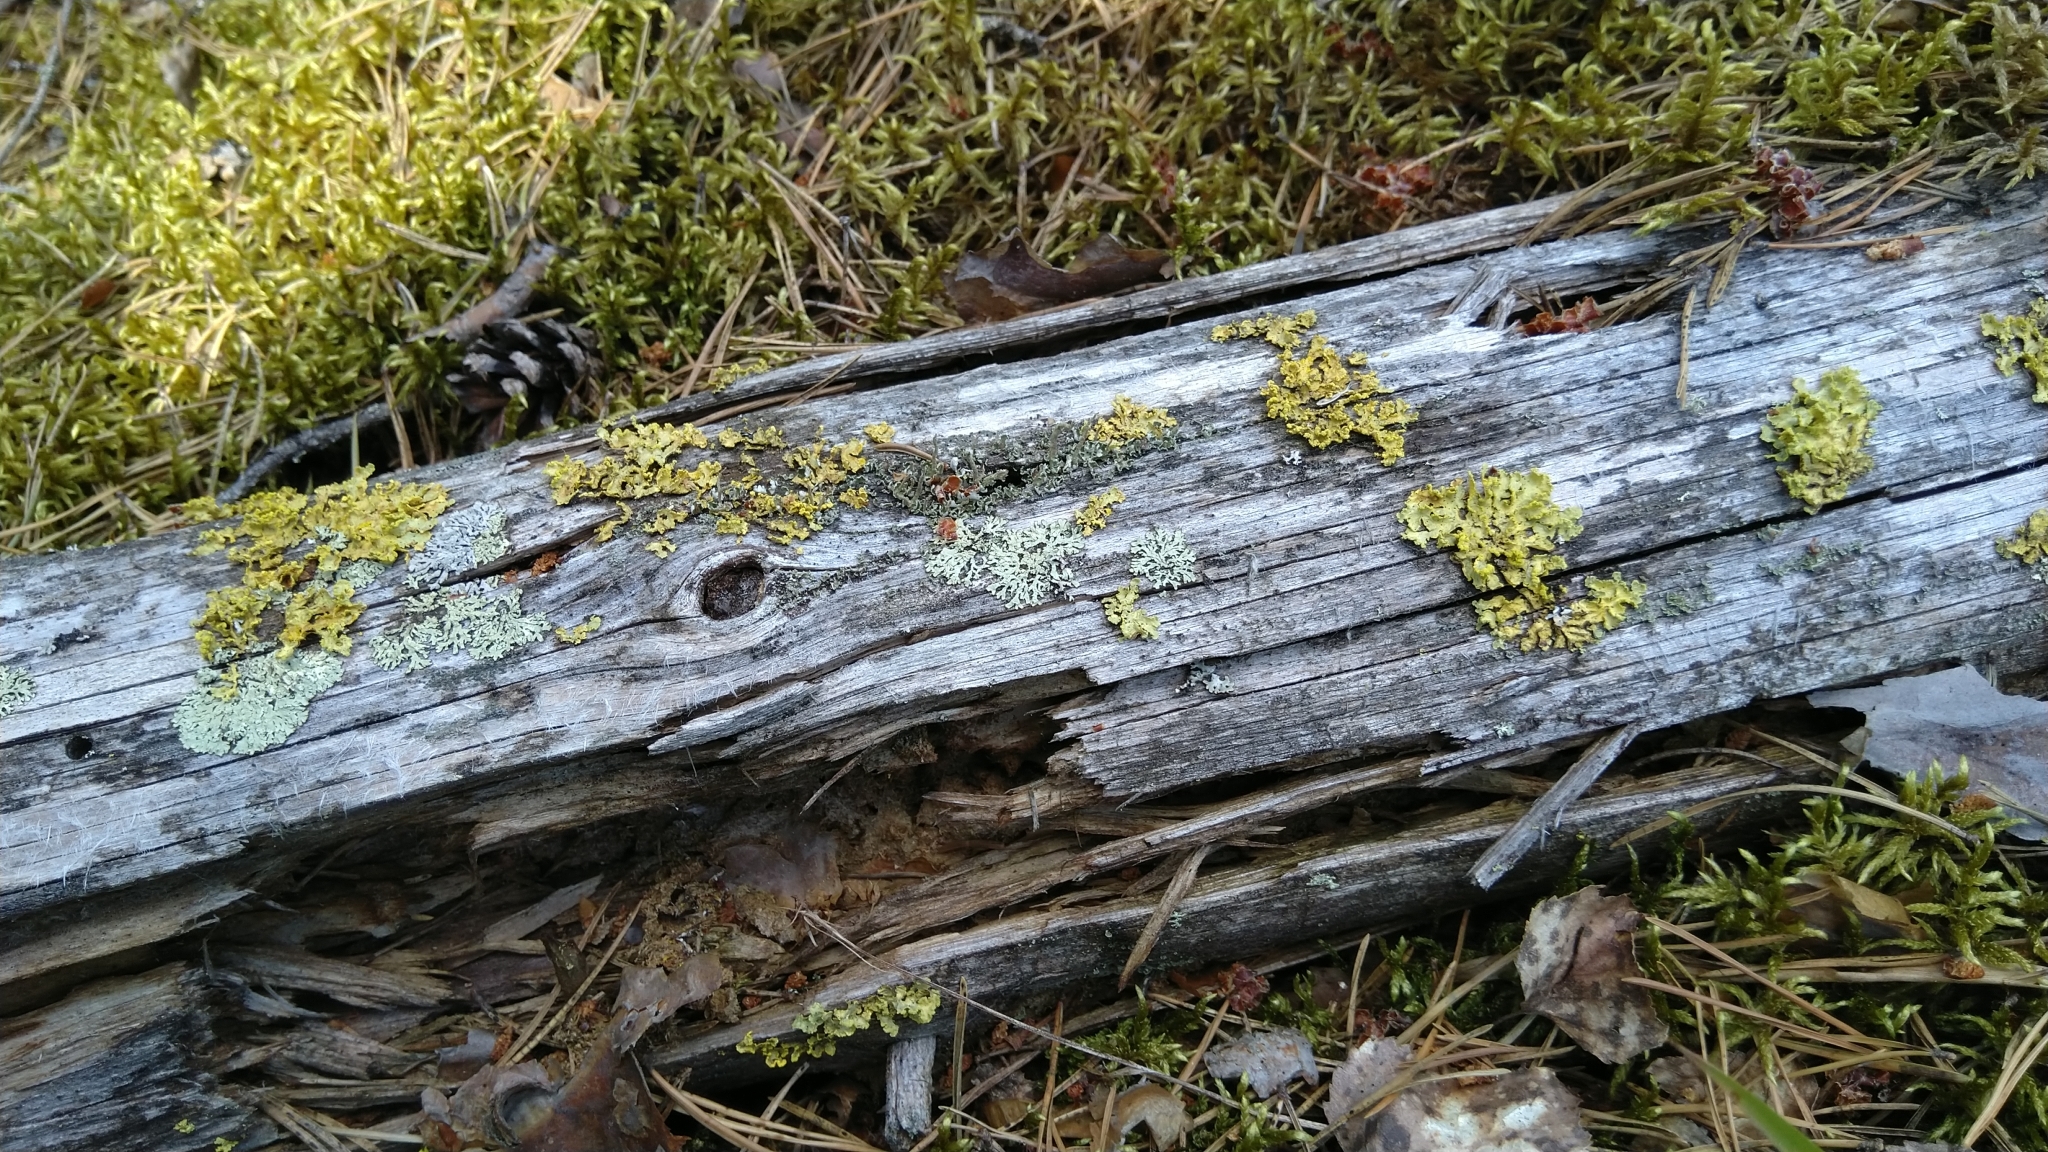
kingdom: Fungi
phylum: Ascomycota
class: Lecanoromycetes
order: Lecanorales
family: Parmeliaceae
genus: Vulpicida
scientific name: Vulpicida pinastri
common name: Powdered sunshine lichen
